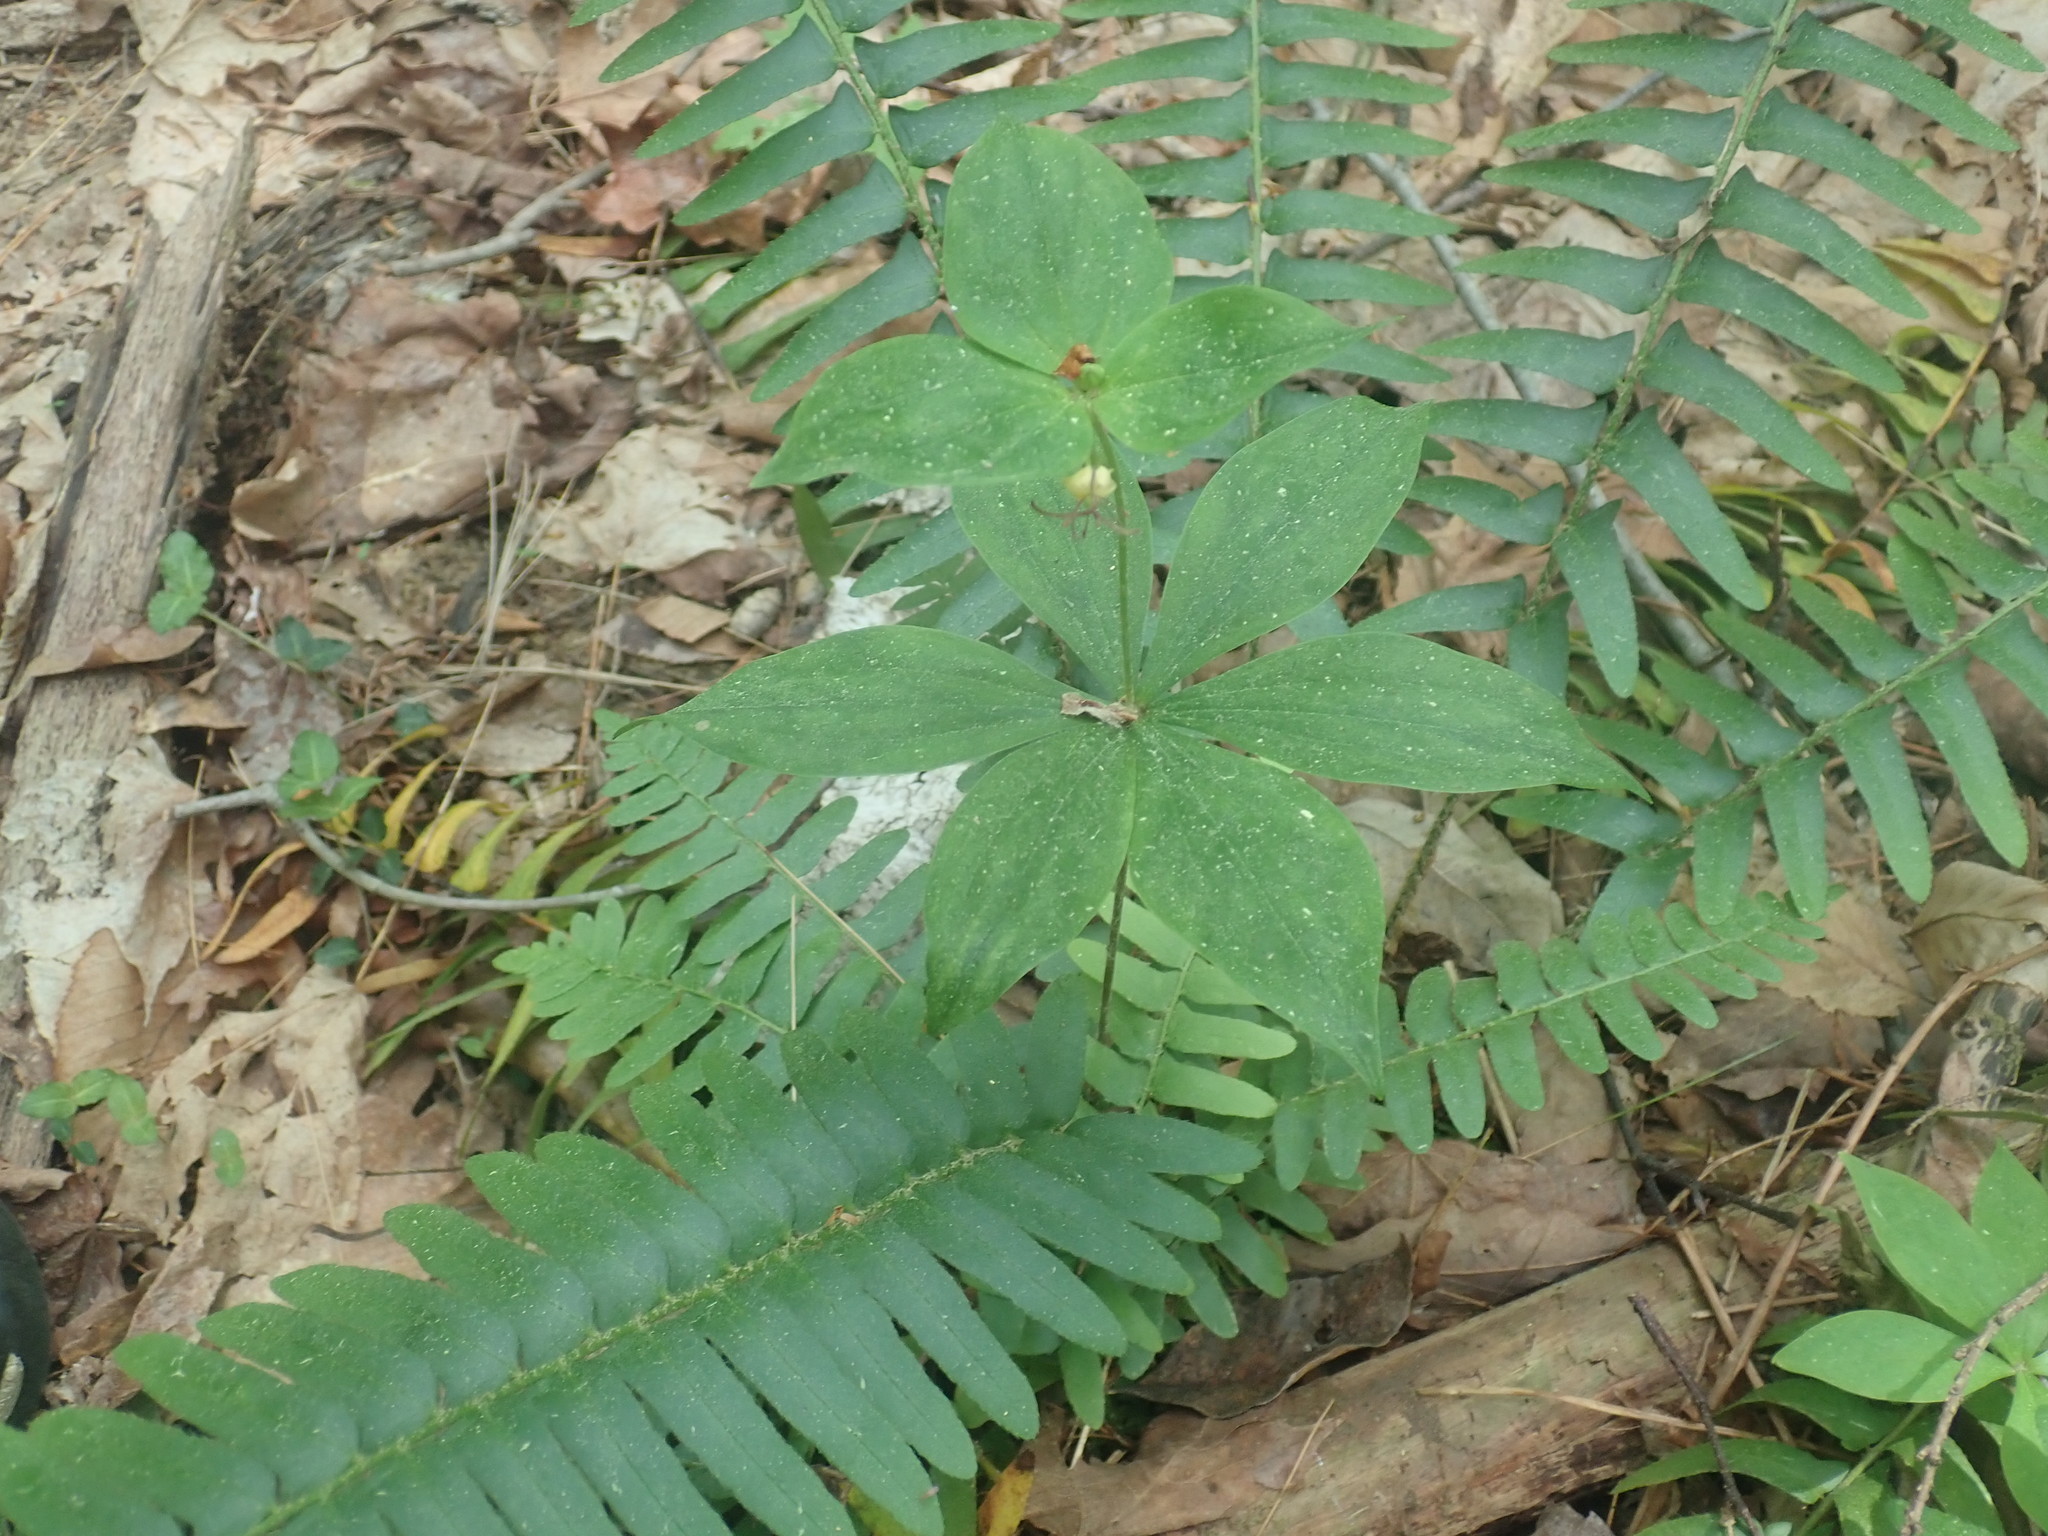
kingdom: Plantae
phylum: Tracheophyta
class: Liliopsida
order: Liliales
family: Liliaceae
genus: Medeola
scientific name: Medeola virginiana
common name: Indian cucumber-root
